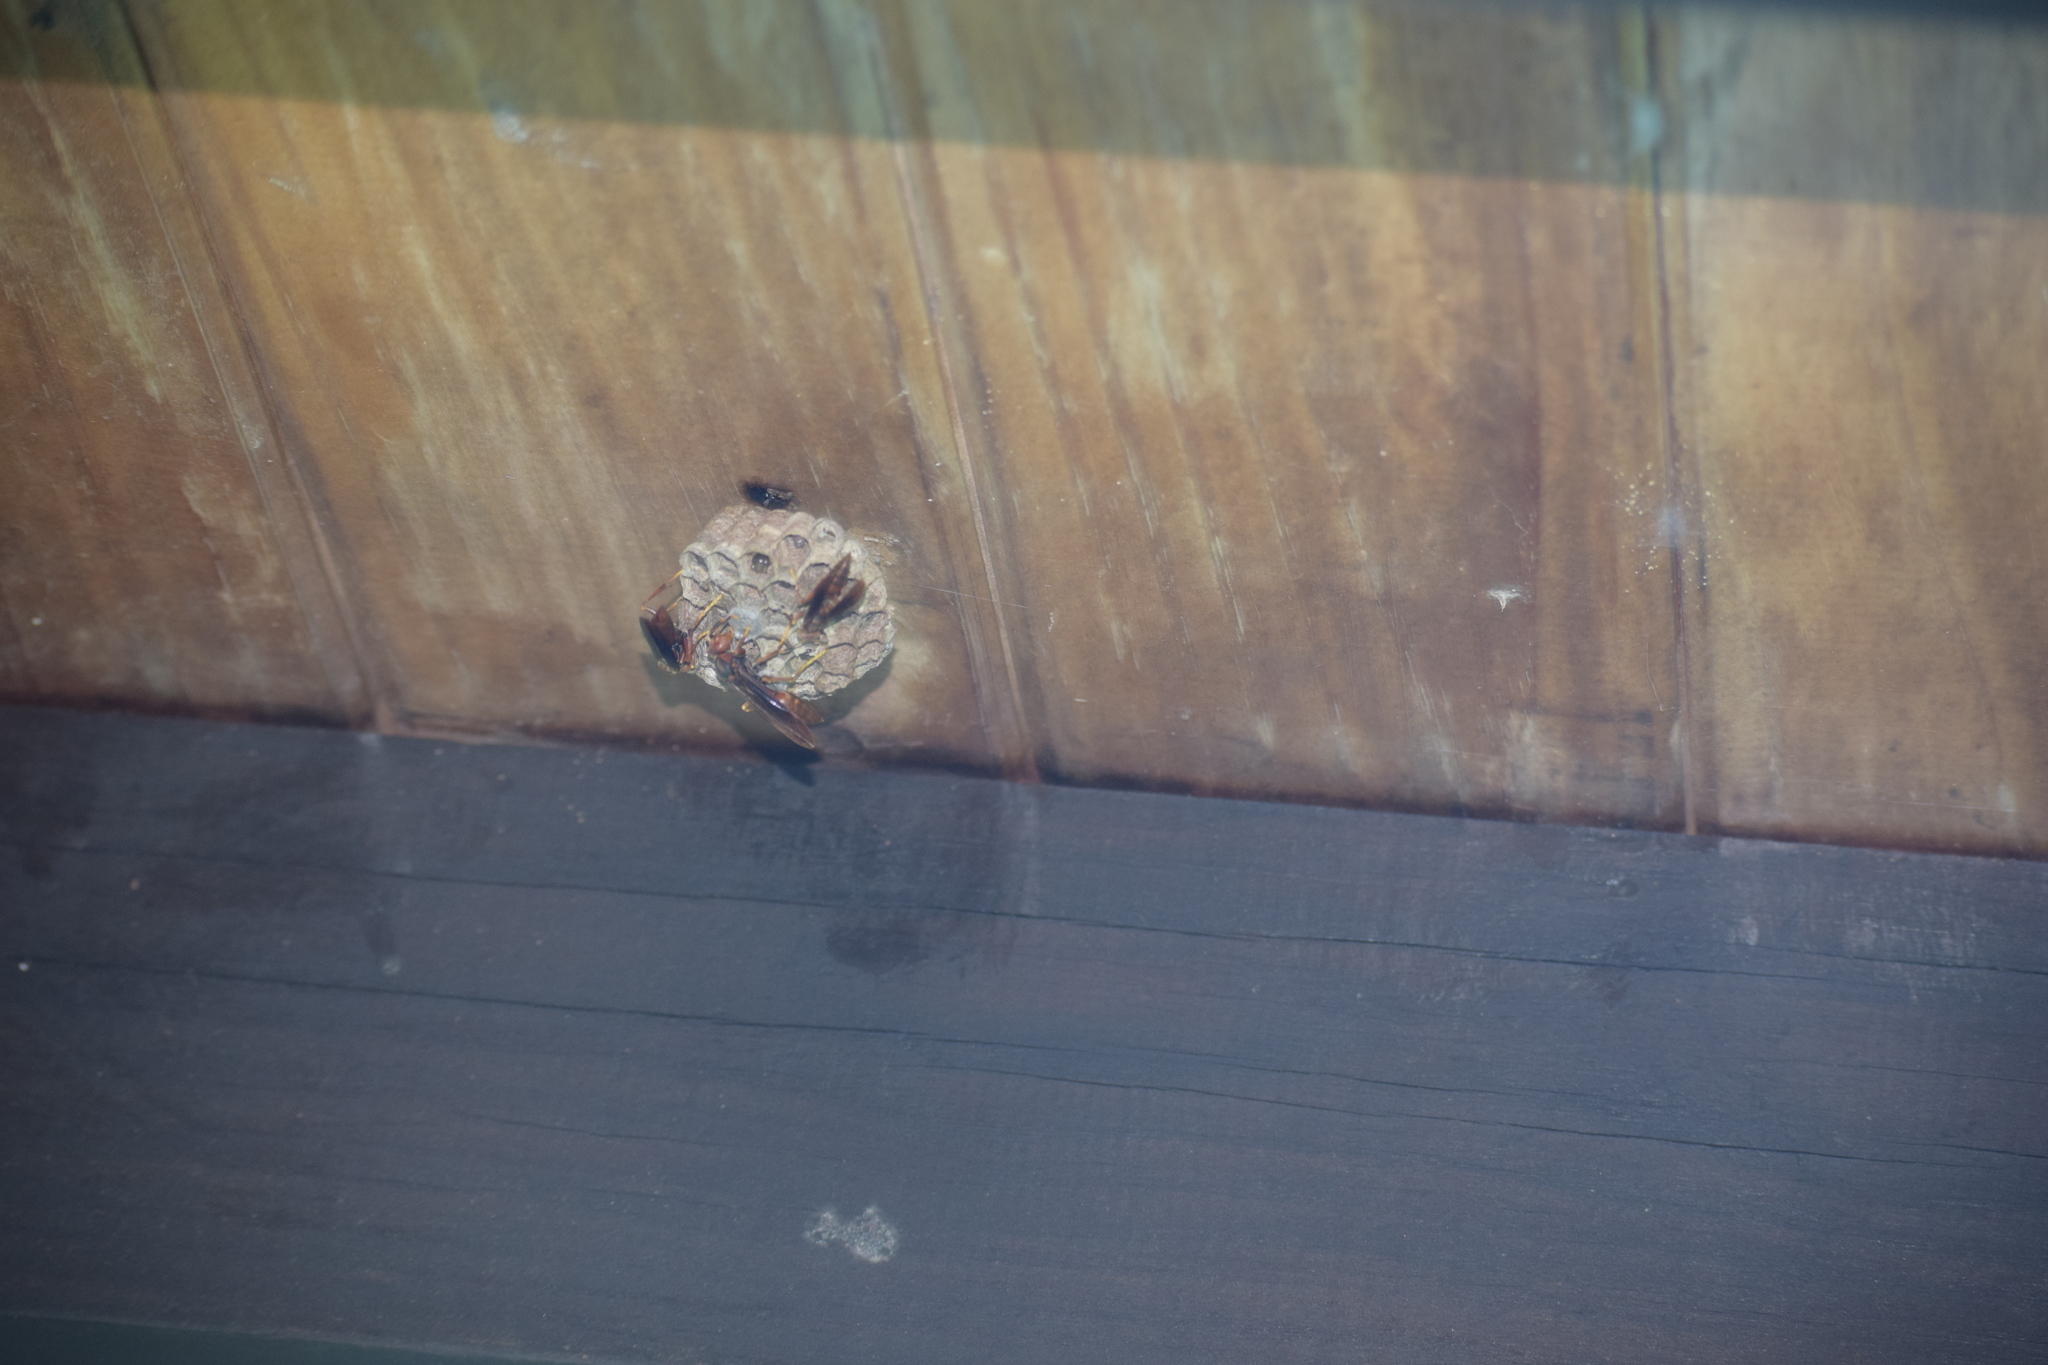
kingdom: Animalia
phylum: Arthropoda
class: Insecta
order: Hymenoptera
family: Pompilidae
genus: Aphanilopterus
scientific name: Aphanilopterus
